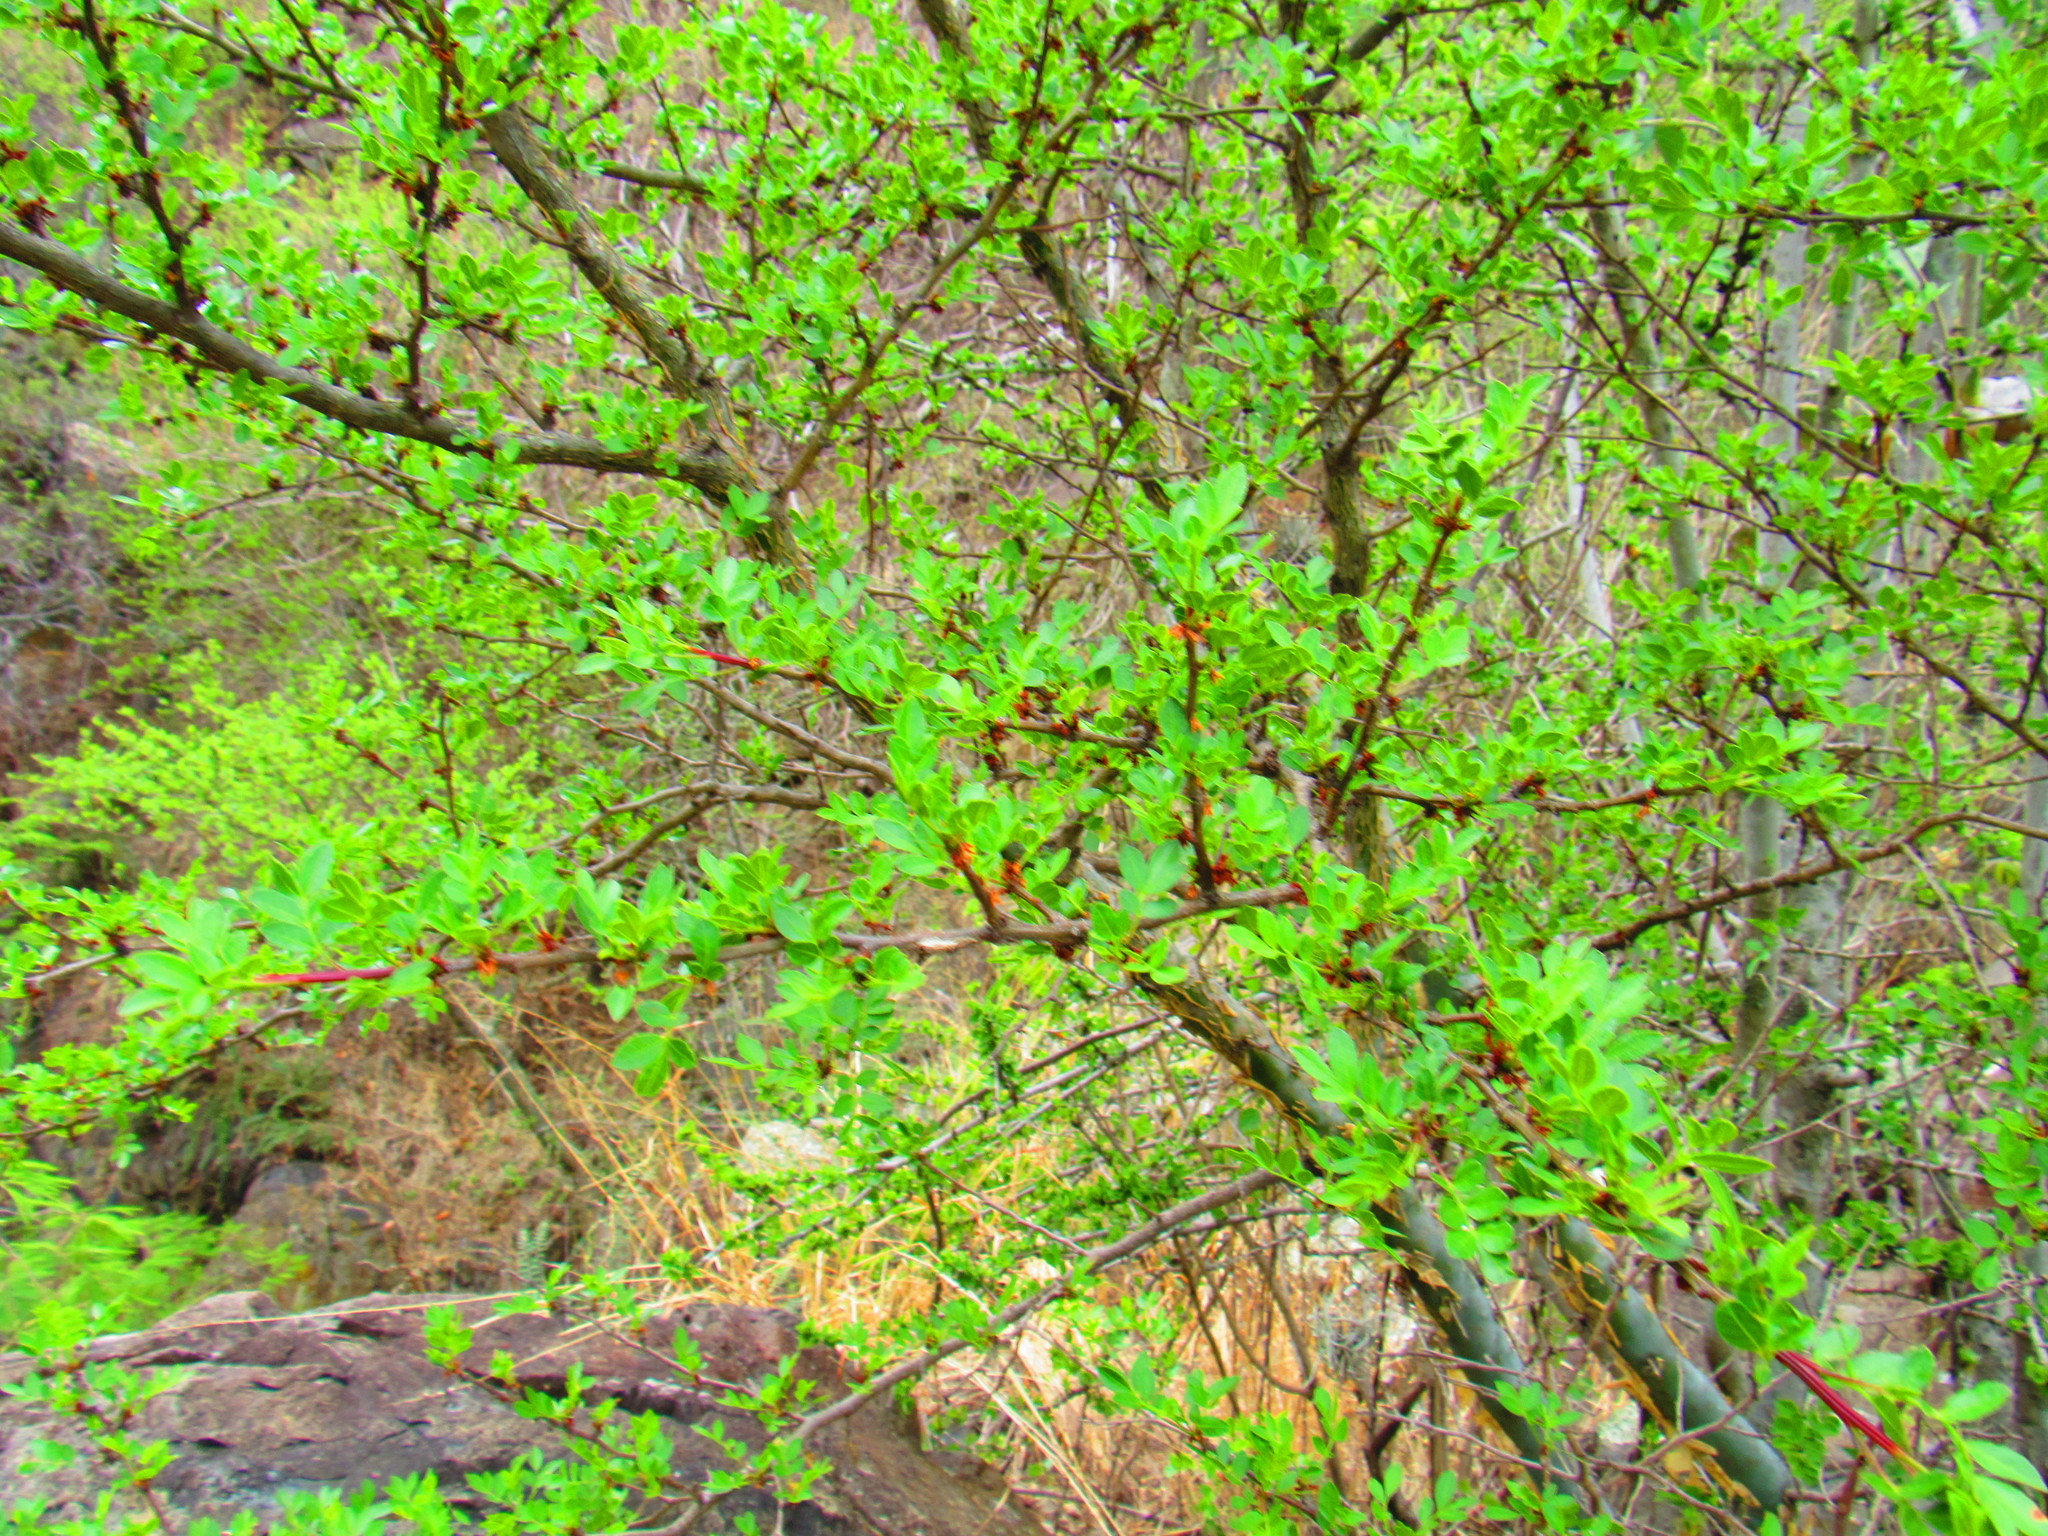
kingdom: Plantae
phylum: Tracheophyta
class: Magnoliopsida
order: Sapindales
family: Burseraceae
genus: Bursera
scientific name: Bursera fagaroides
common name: Elephant tree
